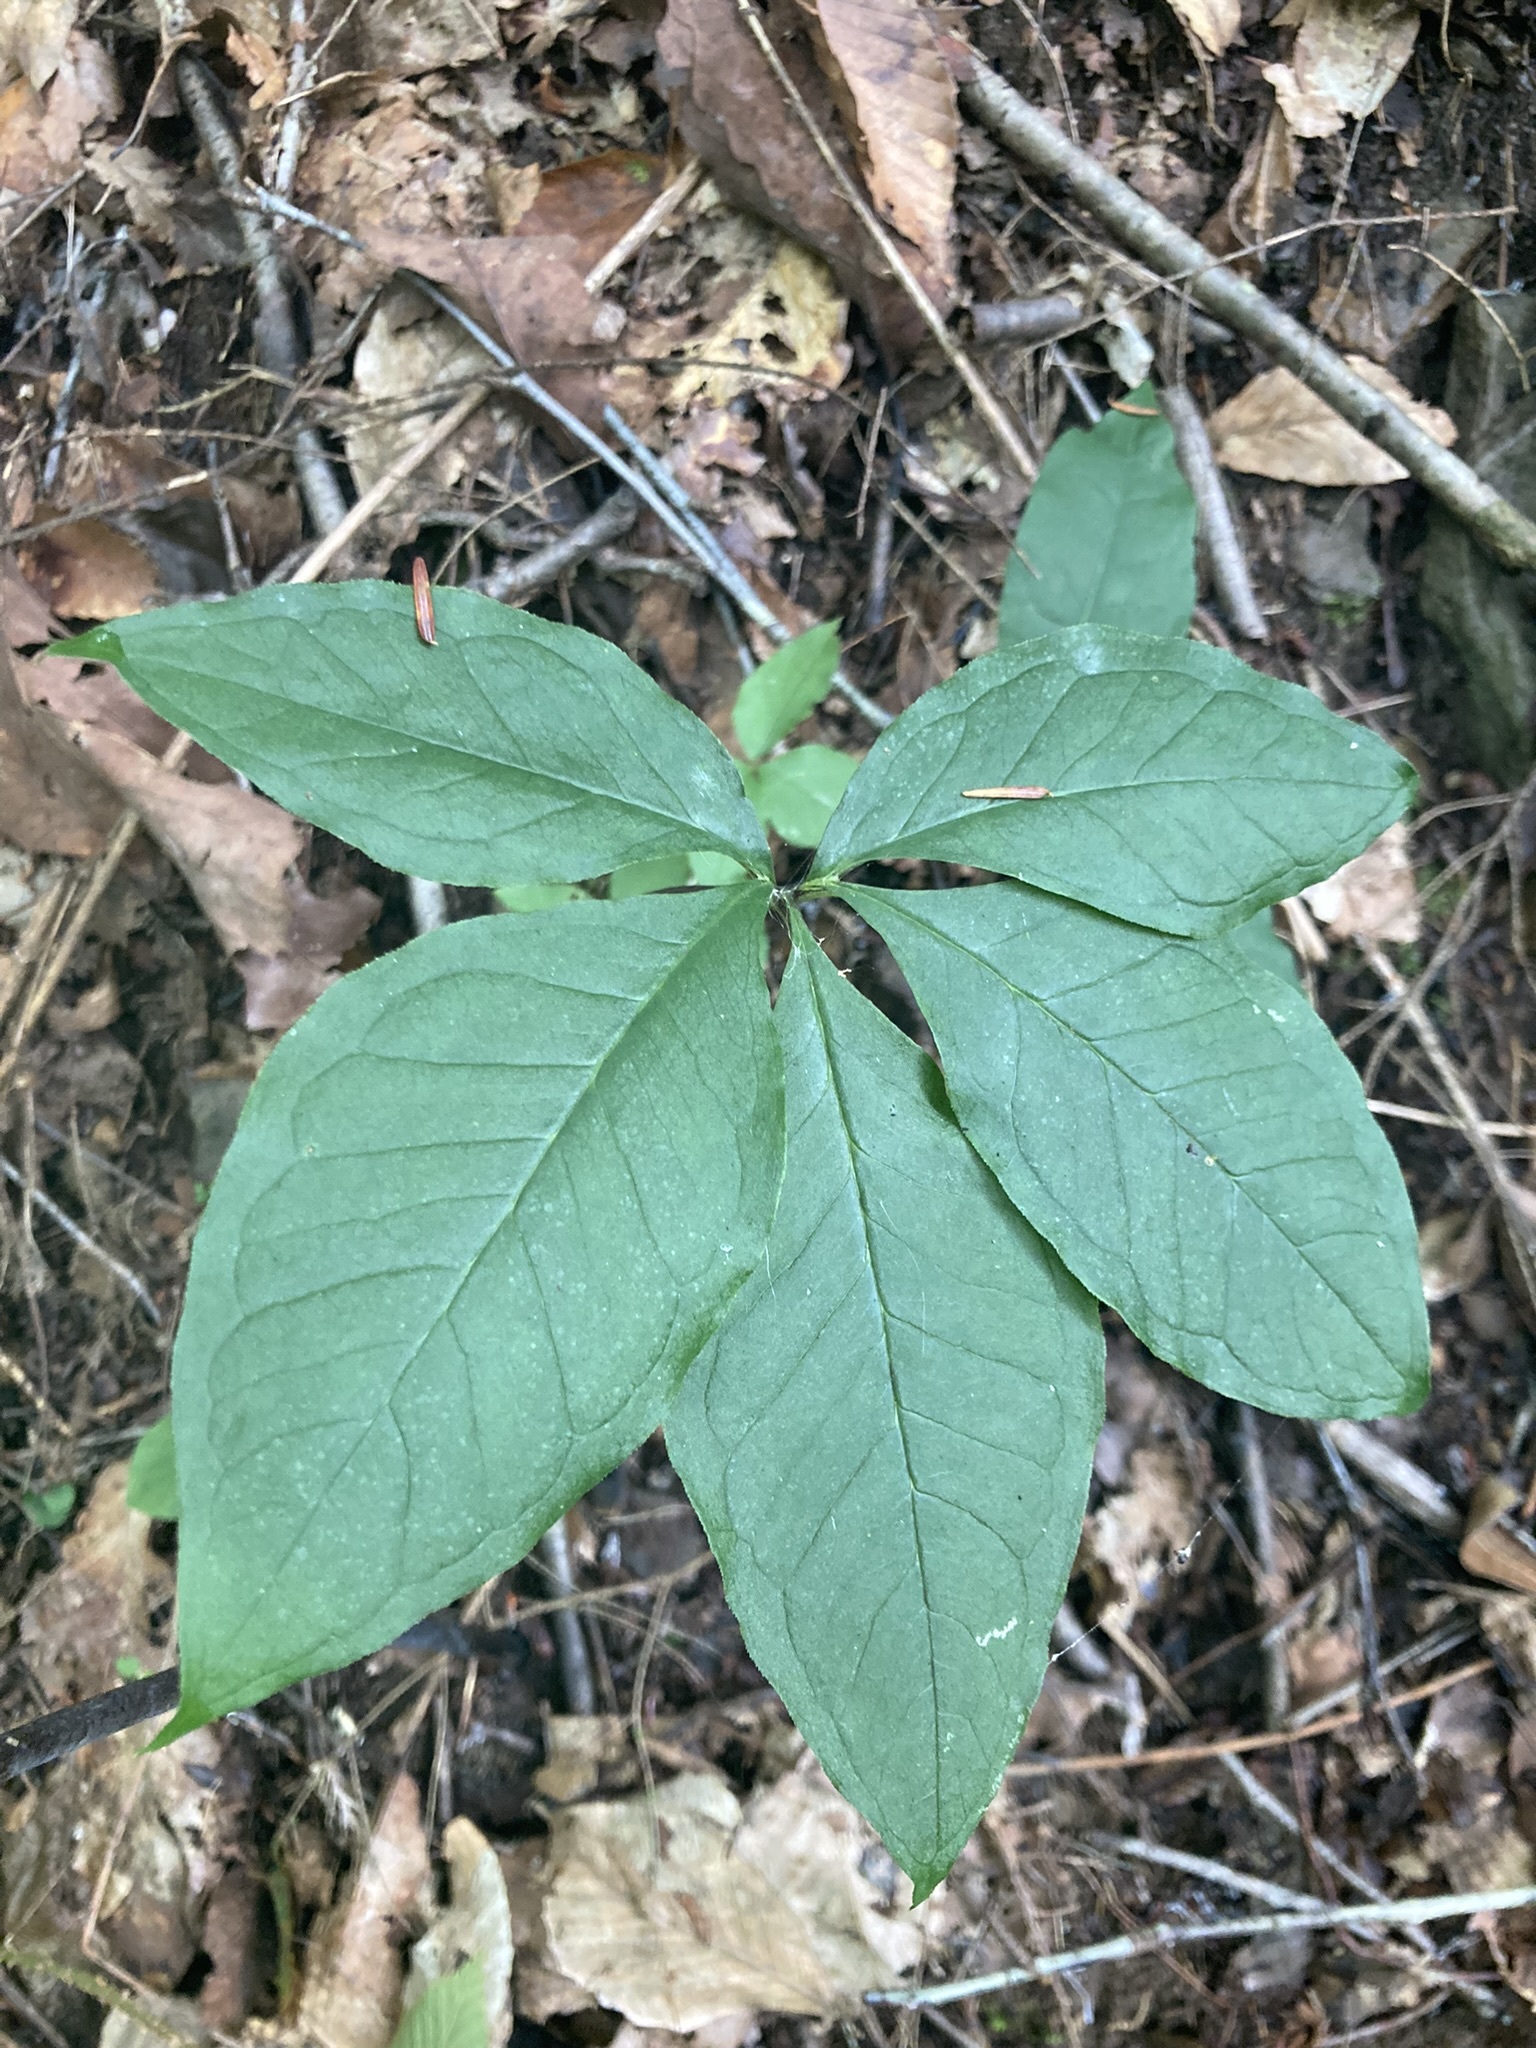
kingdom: Plantae
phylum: Tracheophyta
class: Liliopsida
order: Alismatales
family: Araceae
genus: Arisaema
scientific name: Arisaema quinatum
